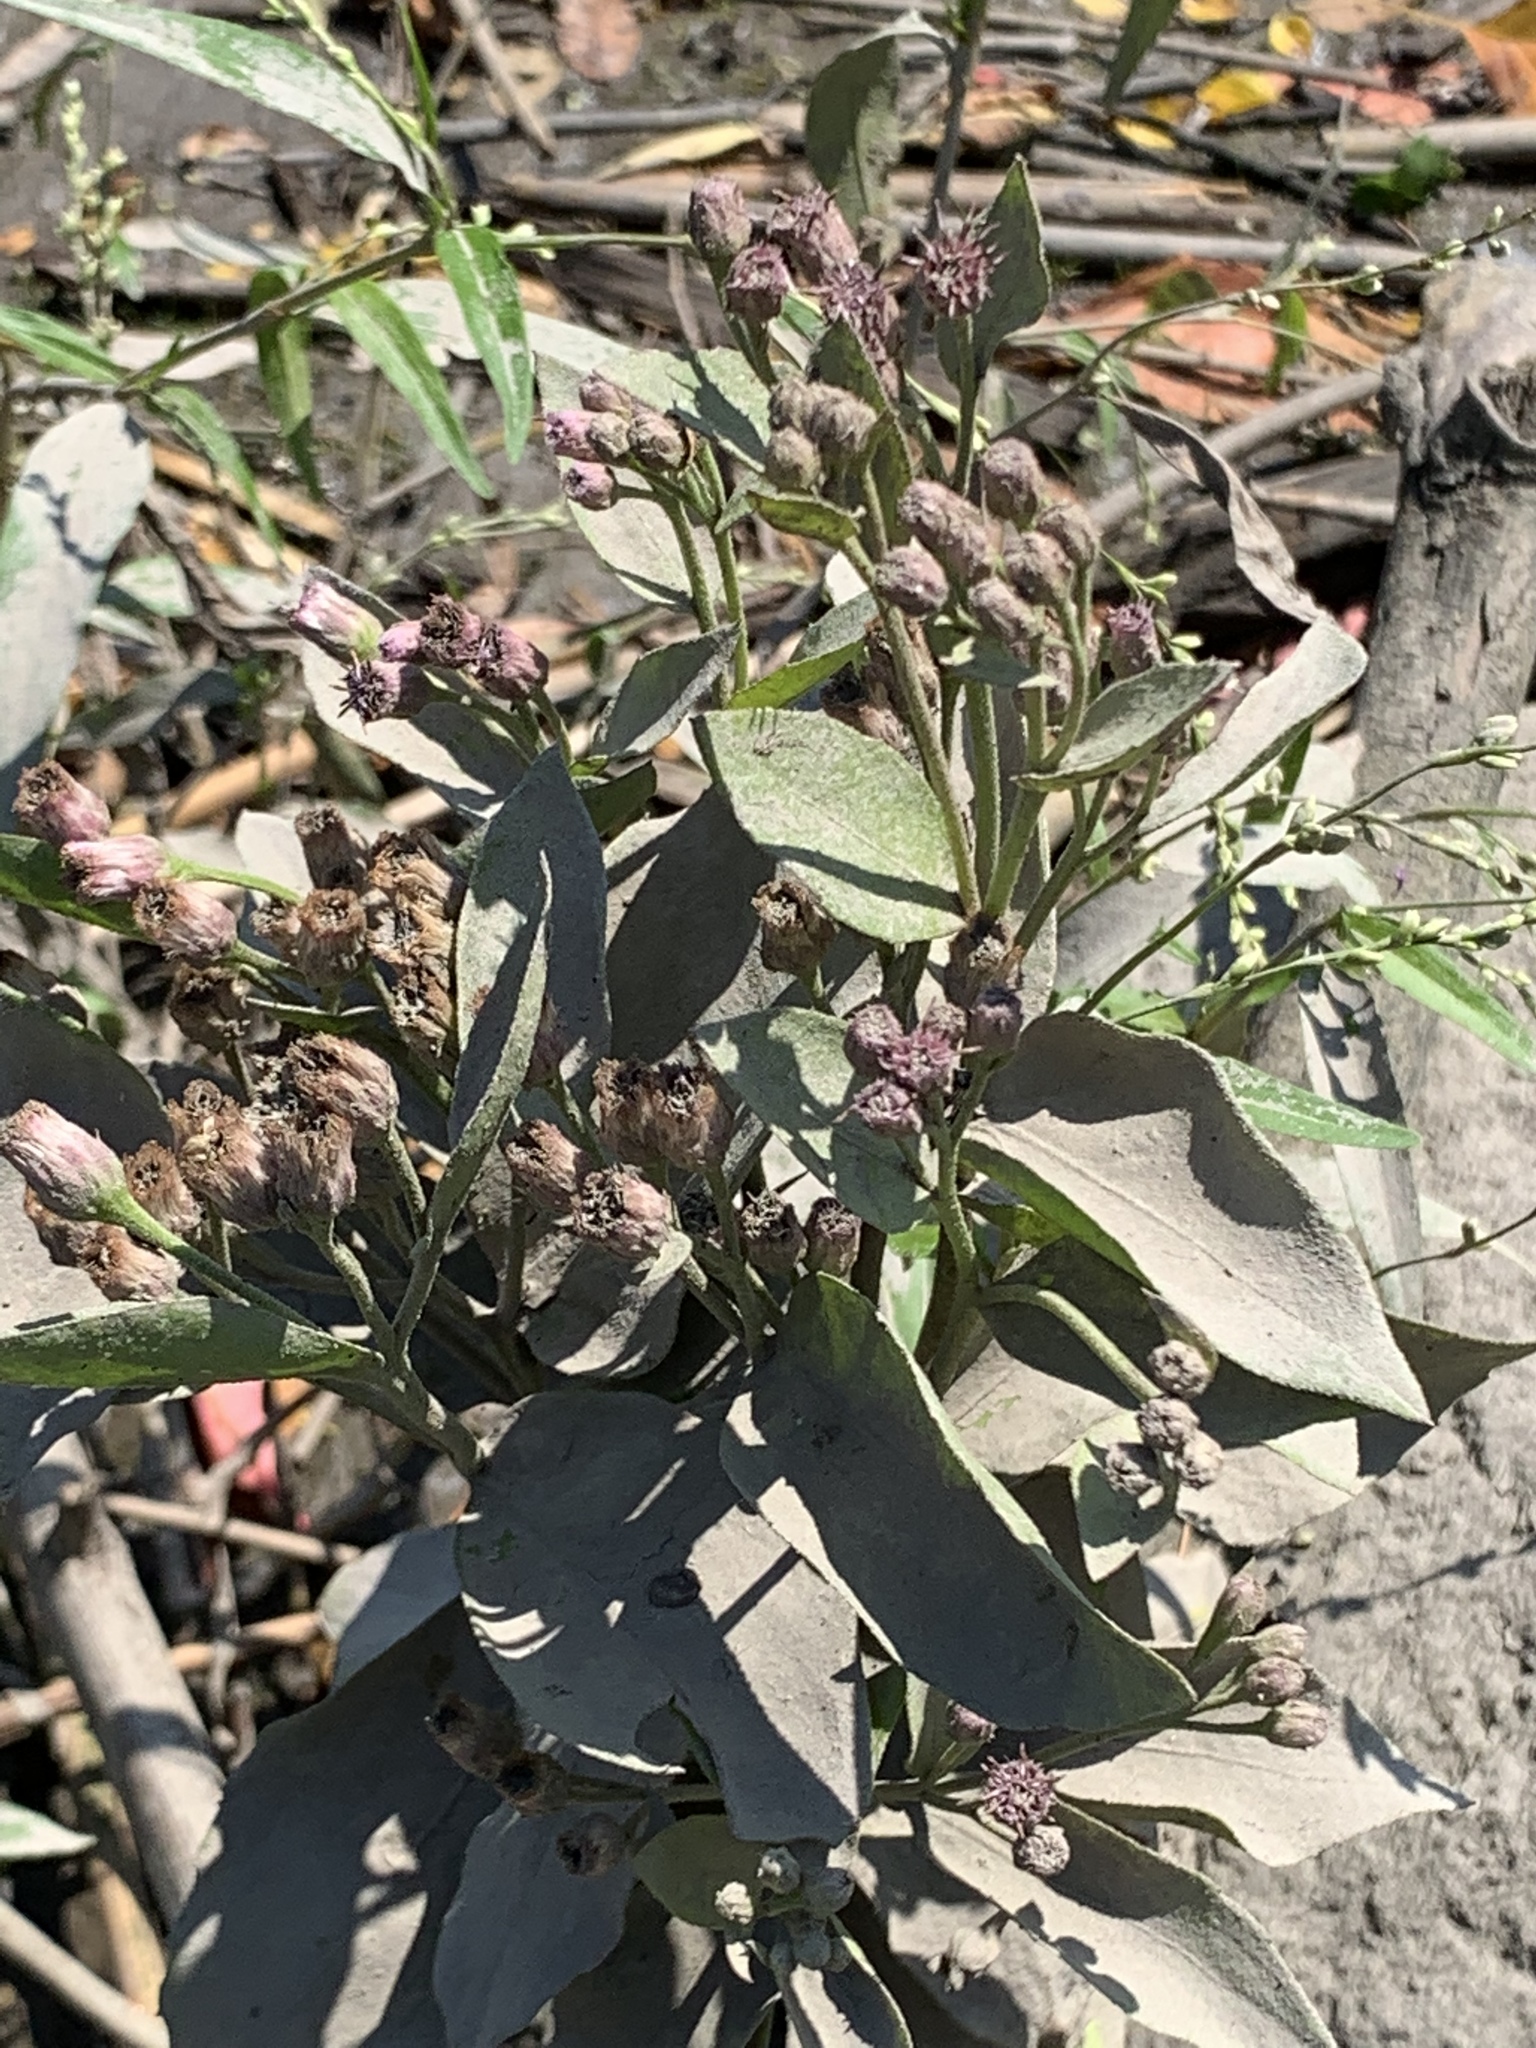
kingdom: Plantae
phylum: Tracheophyta
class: Magnoliopsida
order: Asterales
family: Asteraceae
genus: Pluchea
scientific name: Pluchea odorata
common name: Saltmarsh fleabane
